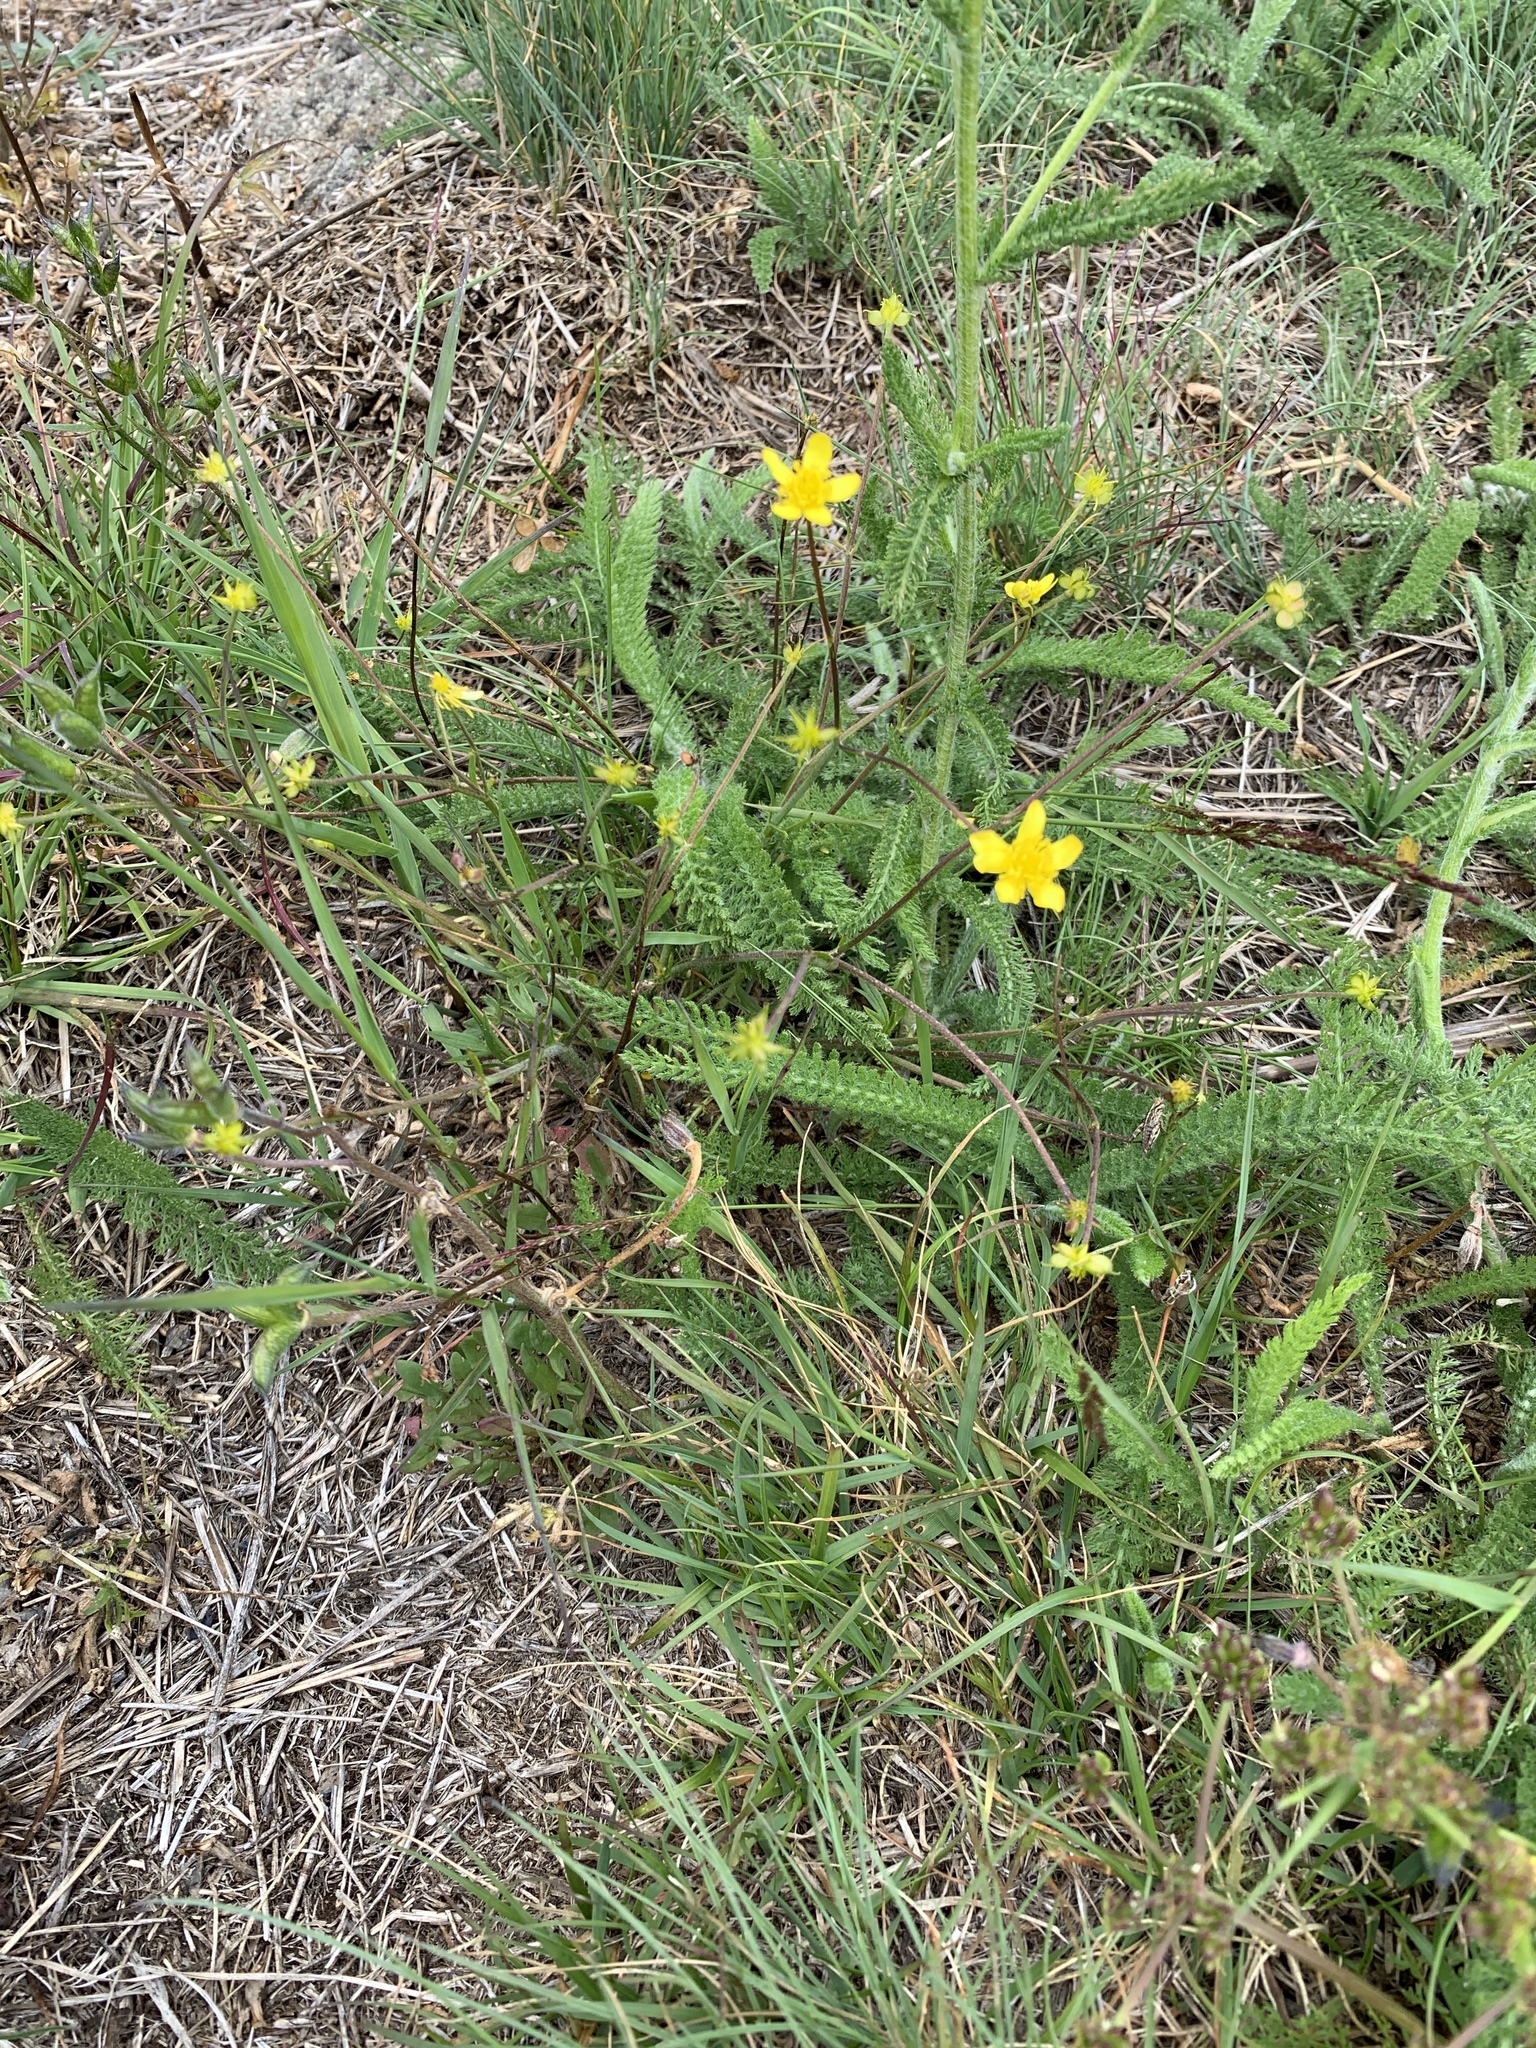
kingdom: Plantae
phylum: Tracheophyta
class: Magnoliopsida
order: Ranunculales
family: Ranunculaceae
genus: Ranunculus
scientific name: Ranunculus occidentalis
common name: Western buttercup
